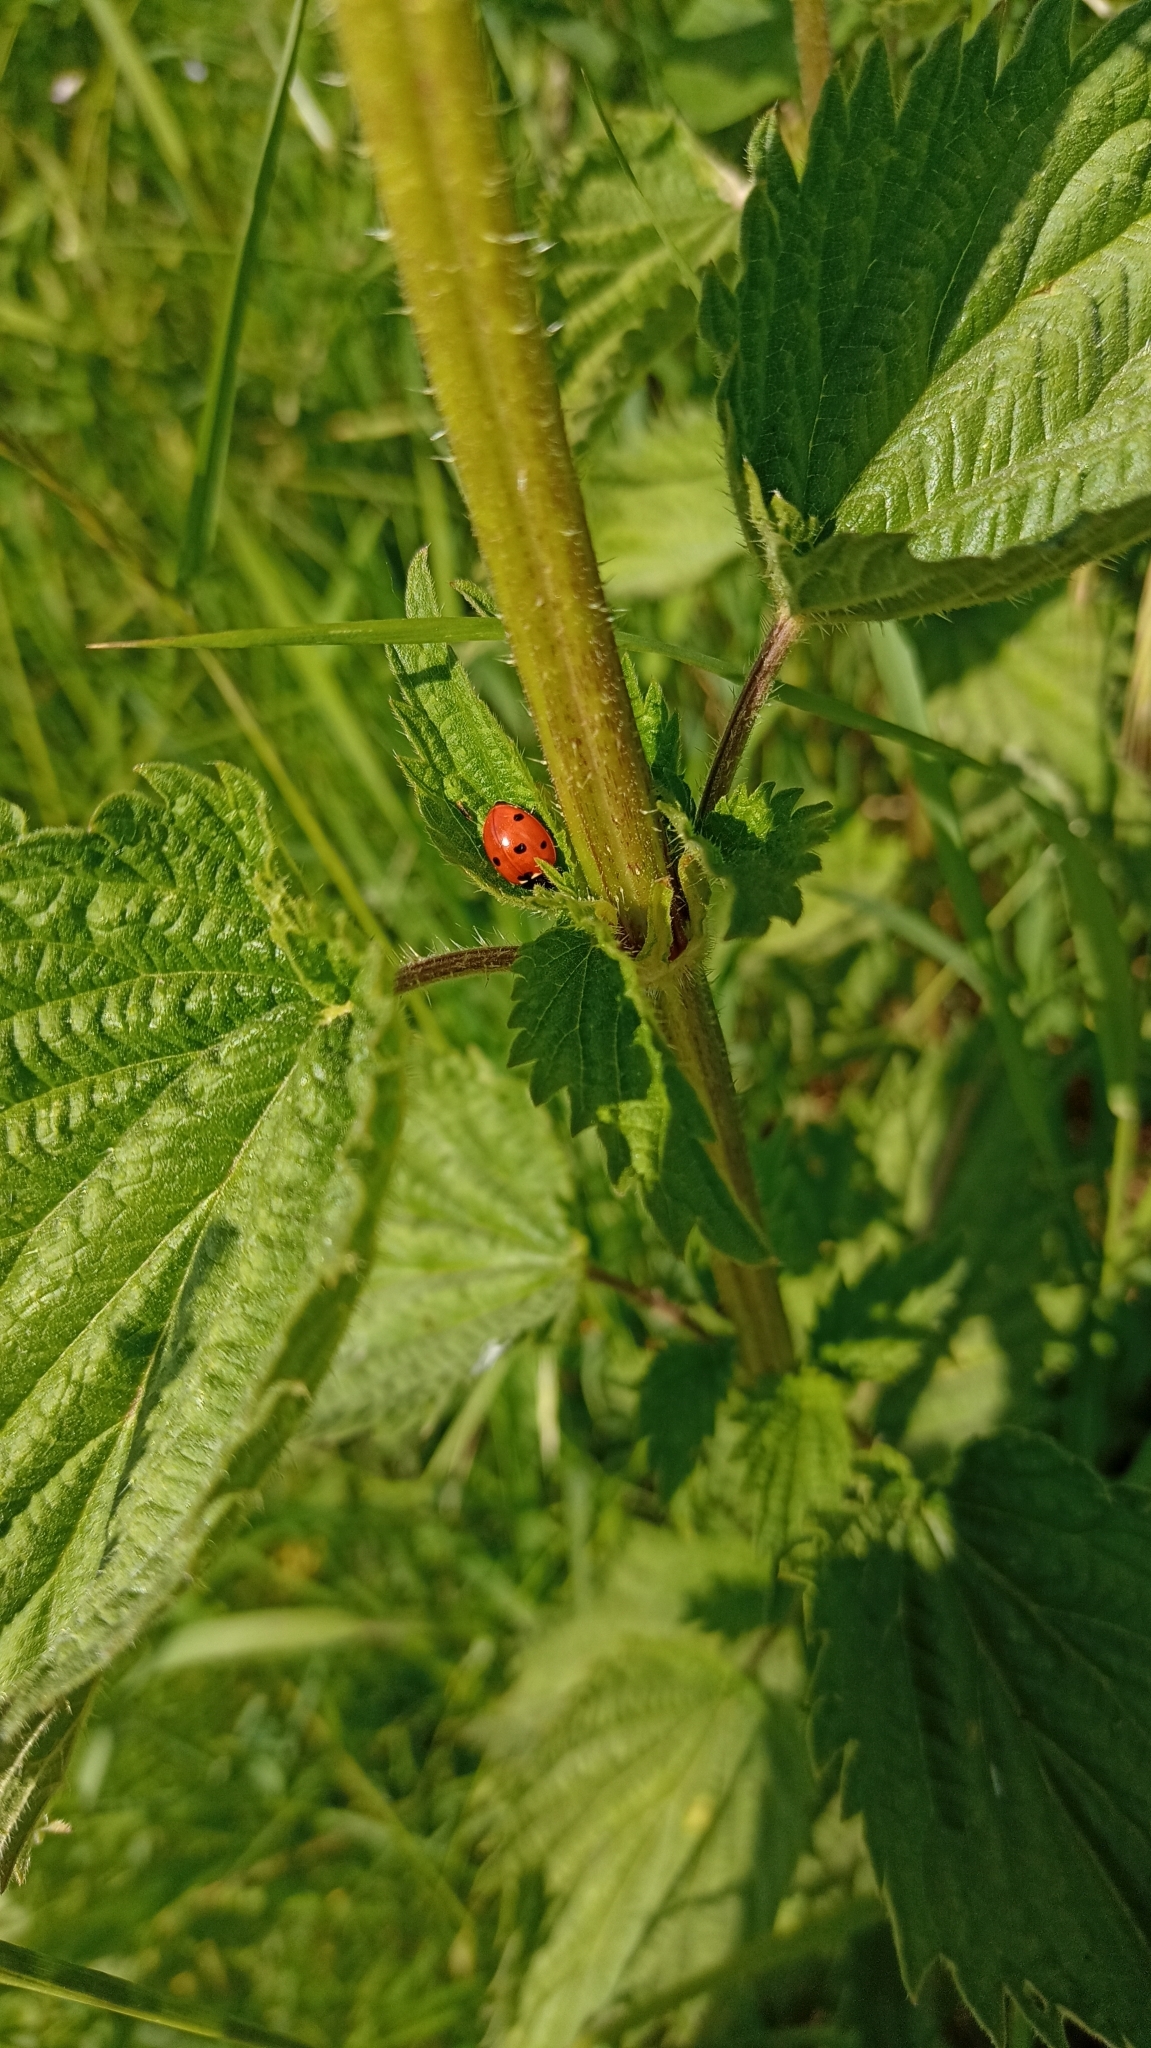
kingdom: Animalia
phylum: Arthropoda
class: Insecta
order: Coleoptera
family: Coccinellidae
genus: Coccinella
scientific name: Coccinella septempunctata
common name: Sevenspotted lady beetle
